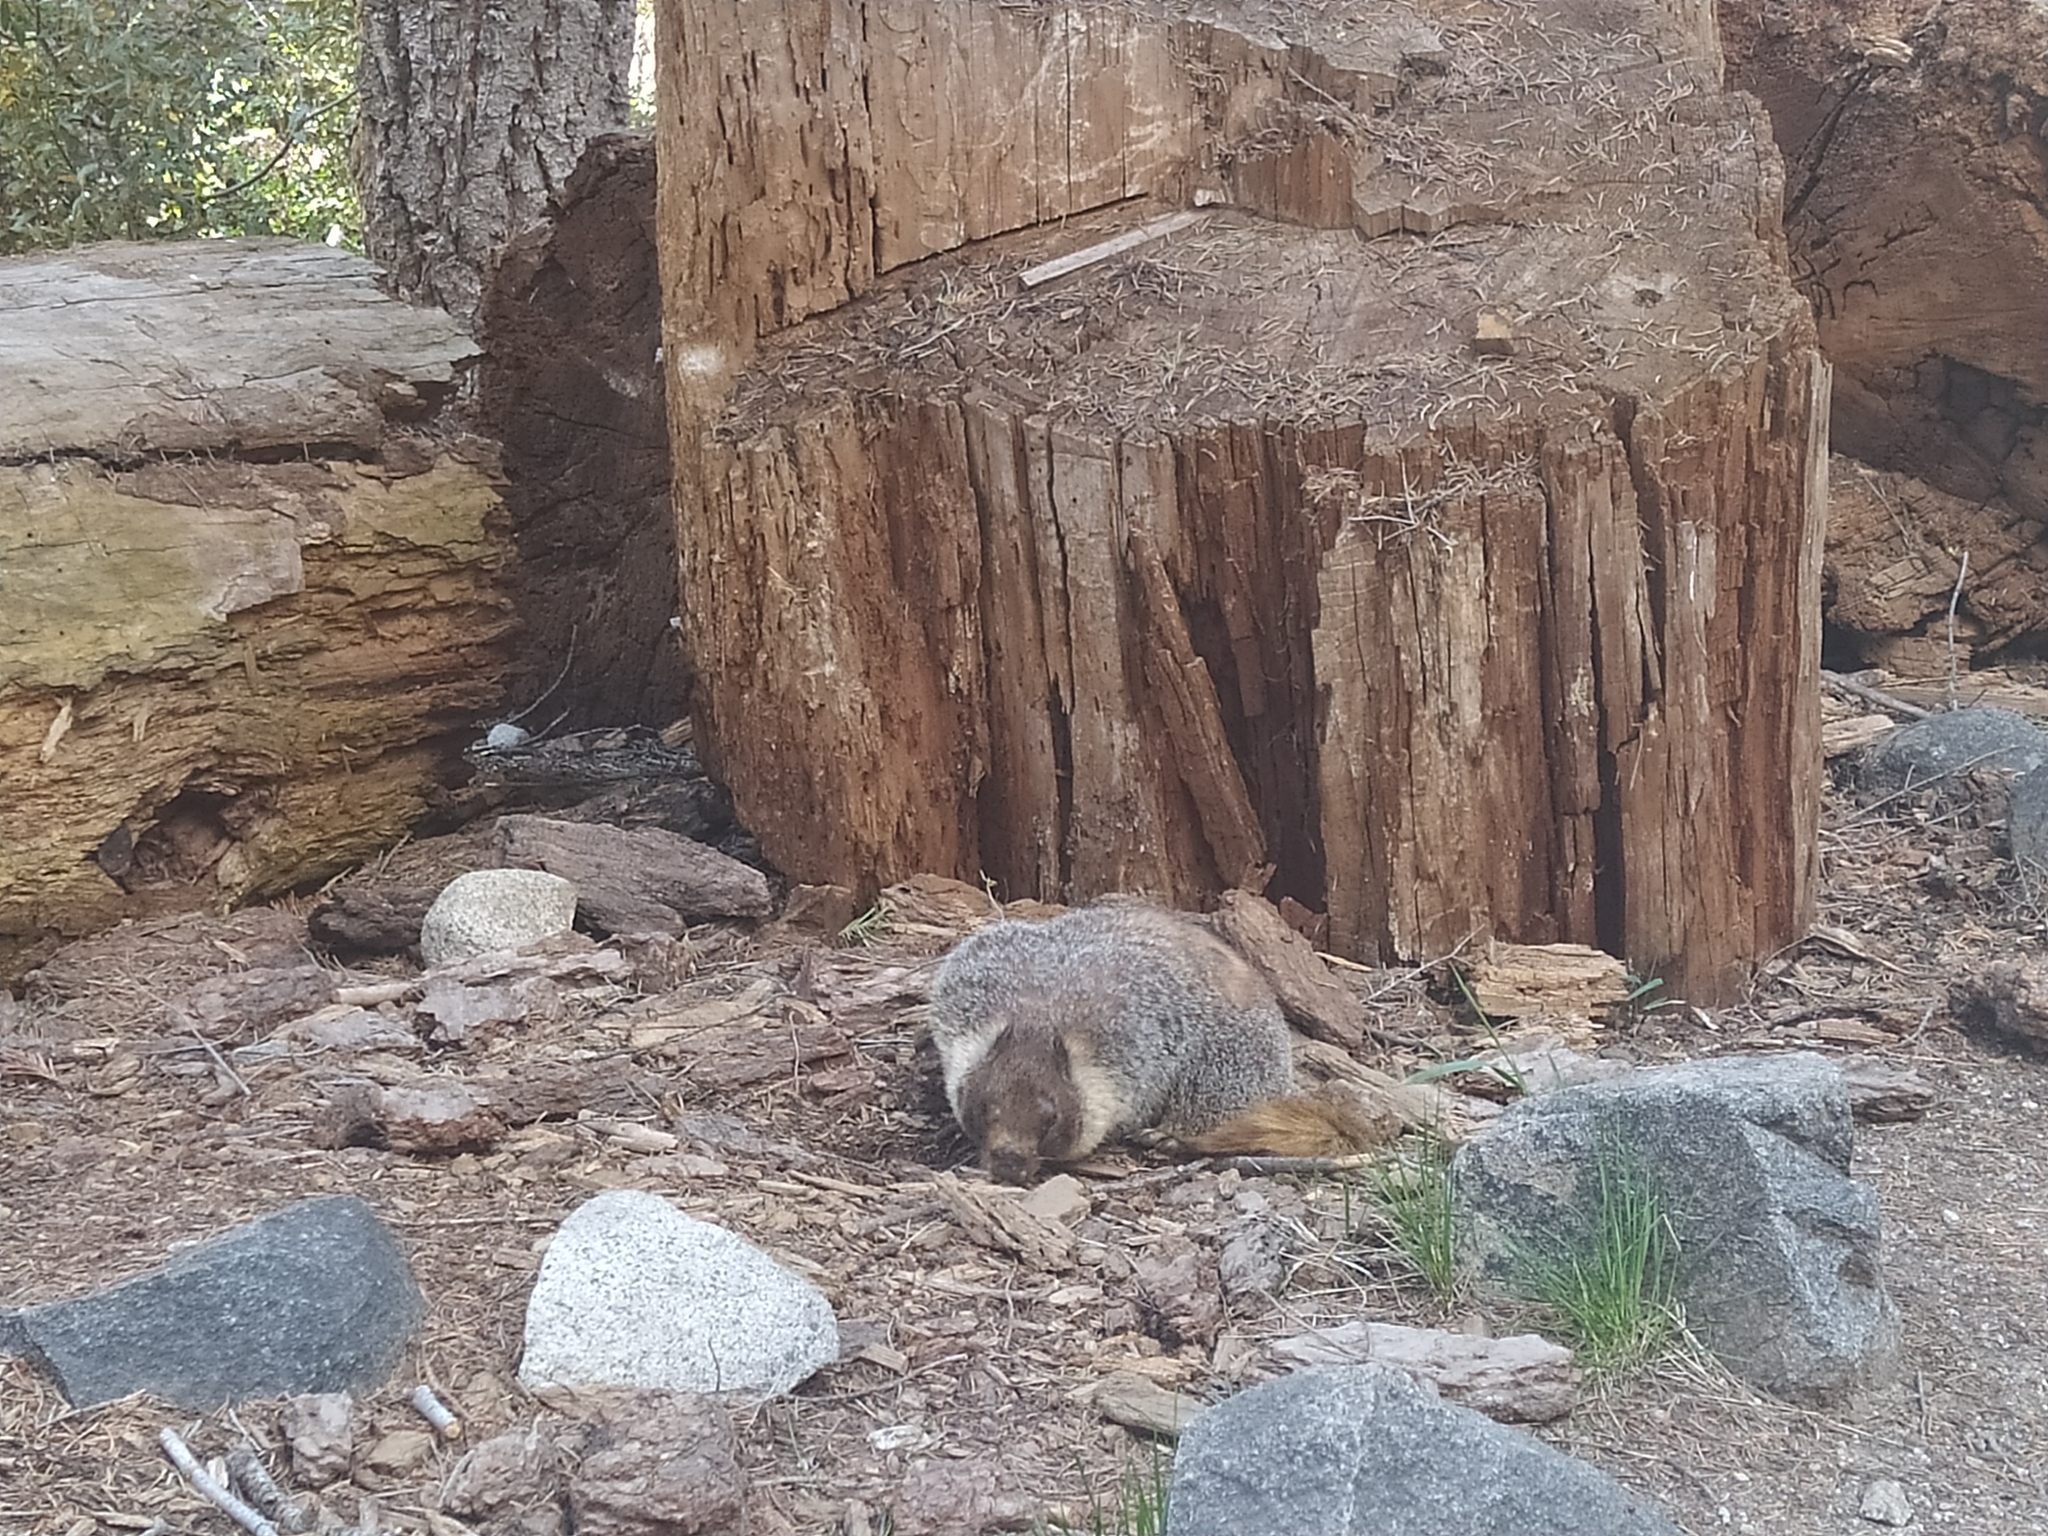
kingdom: Animalia
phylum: Chordata
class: Mammalia
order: Rodentia
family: Sciuridae
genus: Marmota
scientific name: Marmota flaviventris
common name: Yellow-bellied marmot
